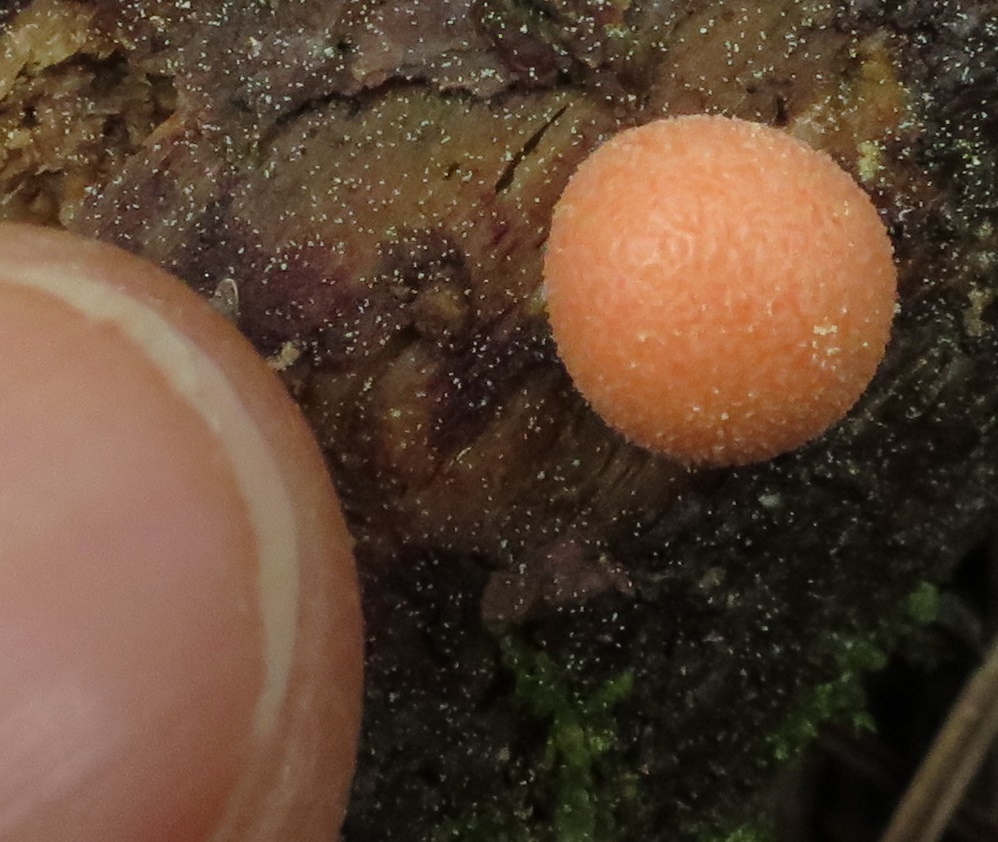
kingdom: Protozoa
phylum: Mycetozoa
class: Myxomycetes
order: Cribrariales
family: Tubiferaceae
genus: Lycogala
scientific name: Lycogala epidendrum
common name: Wolf's milk
